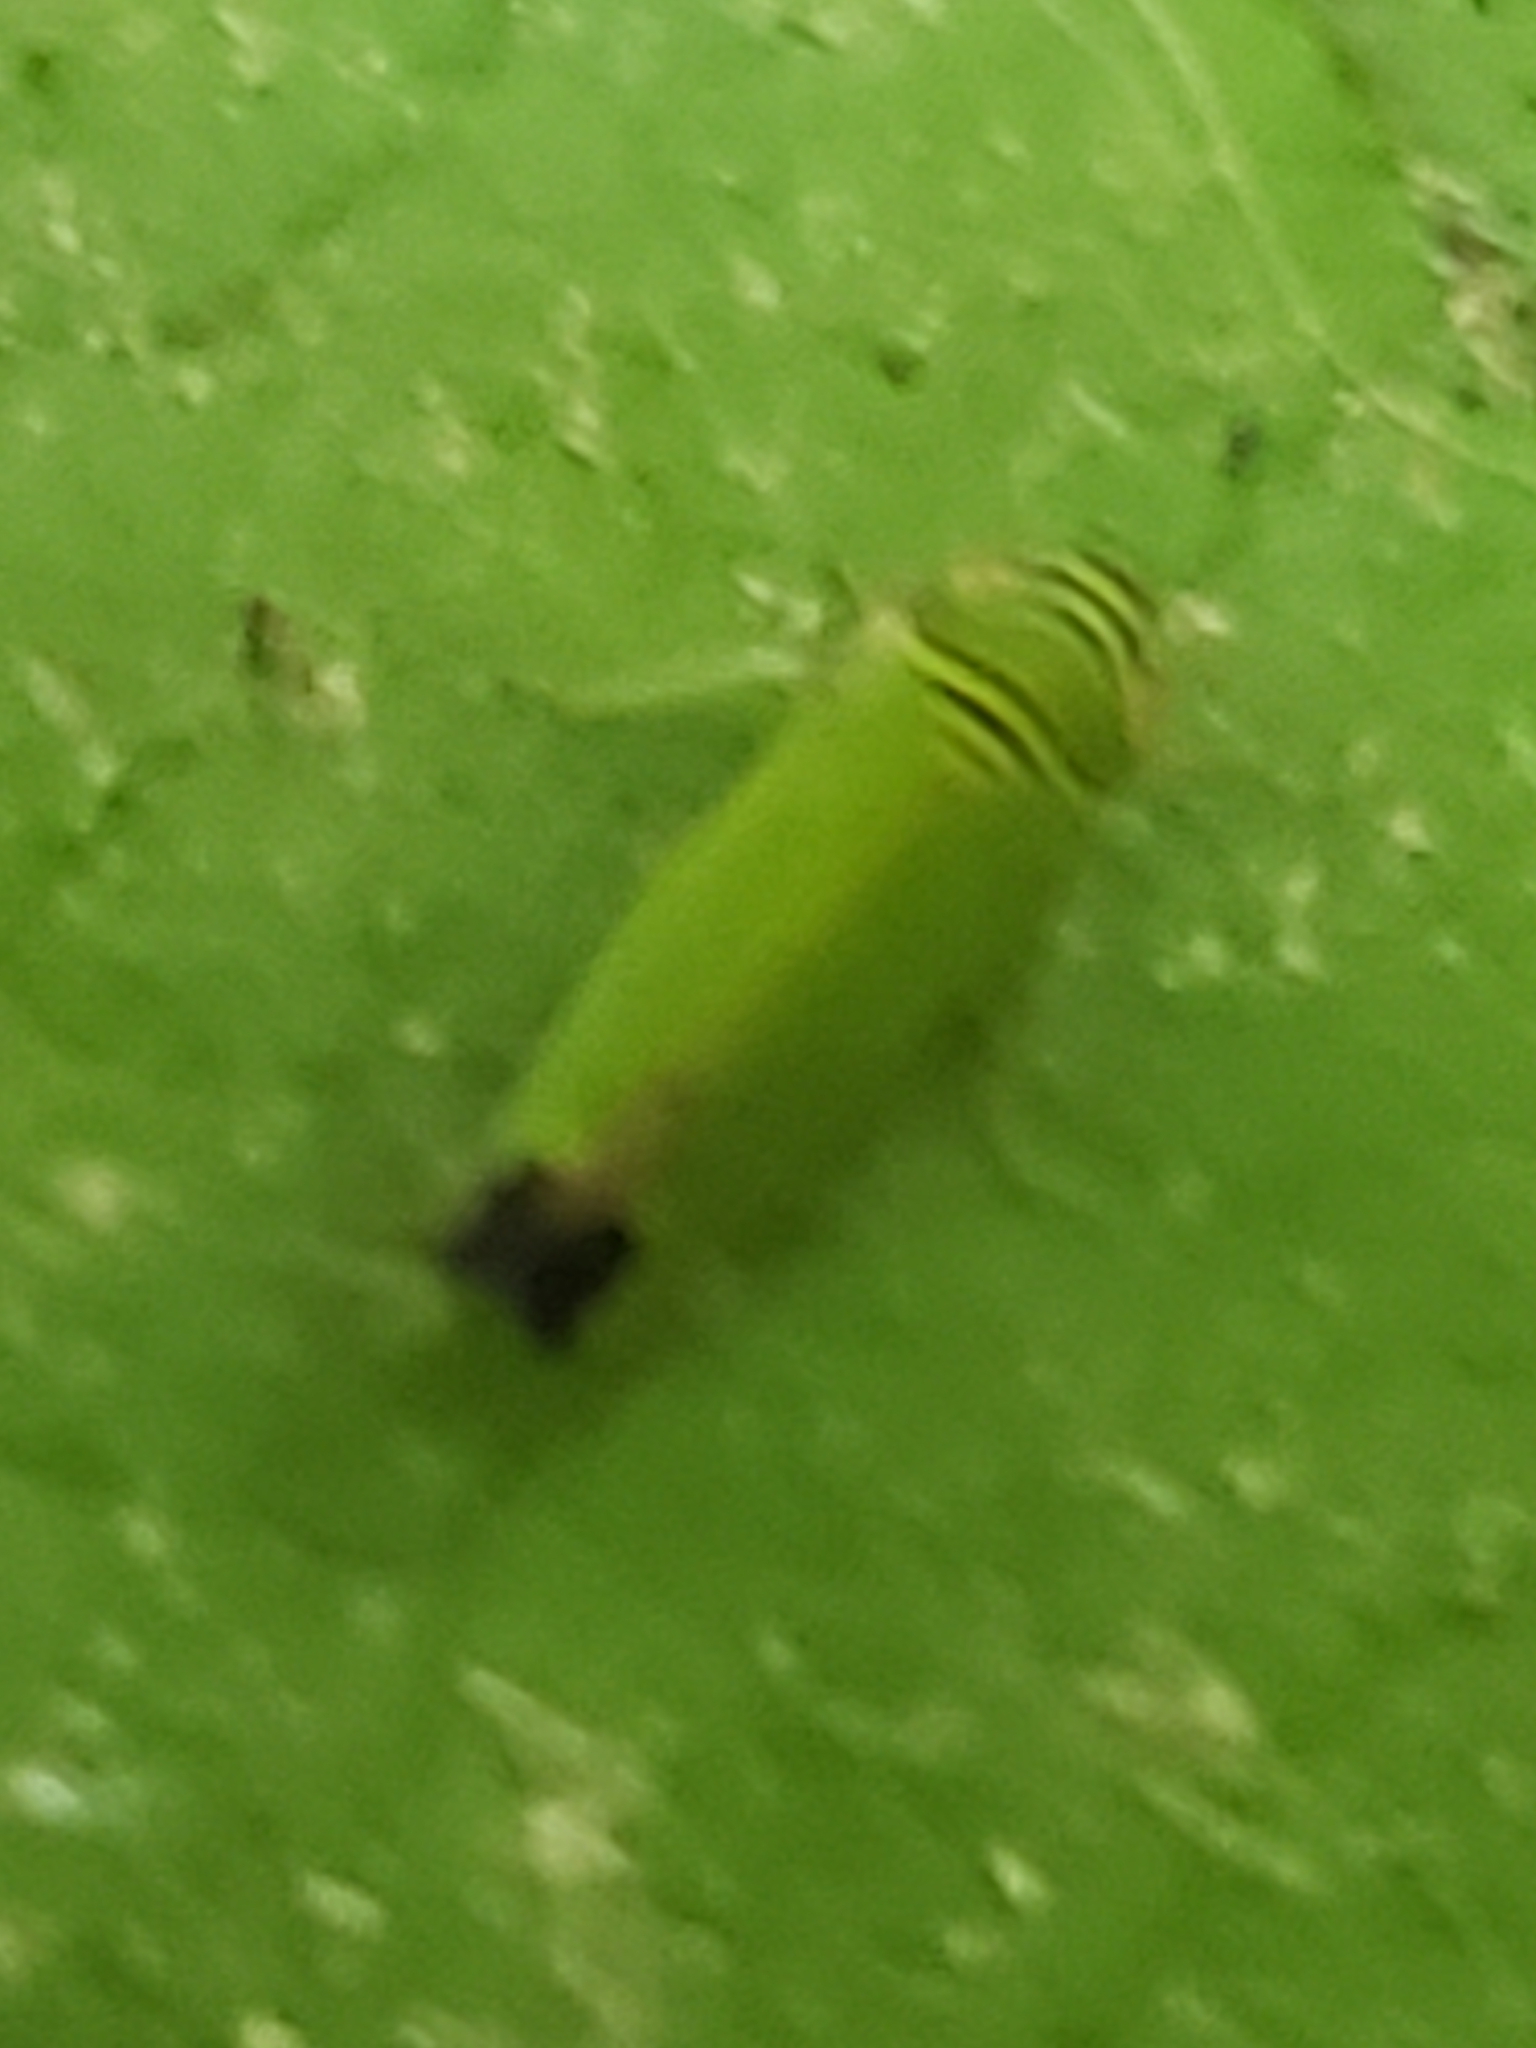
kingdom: Animalia
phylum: Arthropoda
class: Insecta
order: Hemiptera
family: Cicadellidae
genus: Tylozygus
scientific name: Tylozygus geometricus
